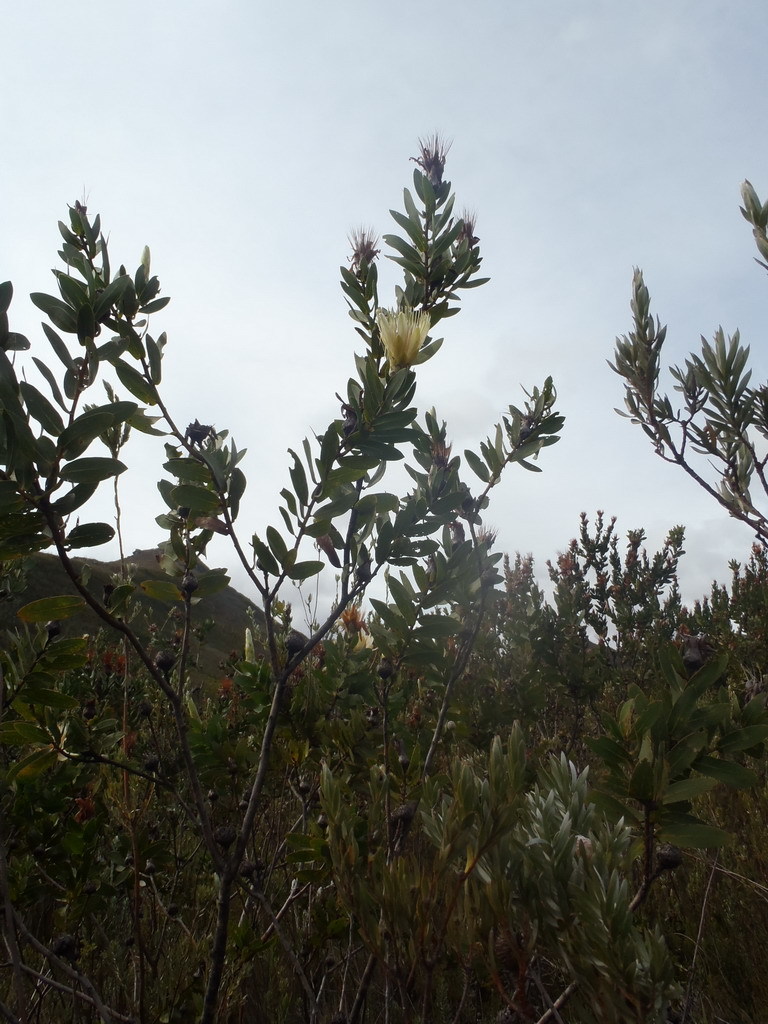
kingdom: Plantae
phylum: Tracheophyta
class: Magnoliopsida
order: Proteales
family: Proteaceae
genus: Protea
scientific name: Protea aurea
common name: Shuttlecock sugarbush
